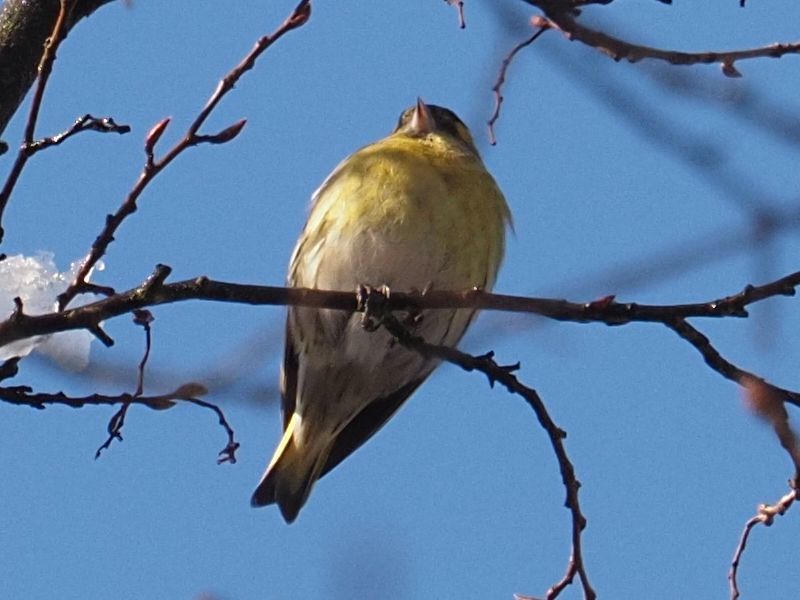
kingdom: Animalia
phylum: Chordata
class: Aves
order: Passeriformes
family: Fringillidae
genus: Spinus
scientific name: Spinus spinus
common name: Eurasian siskin
